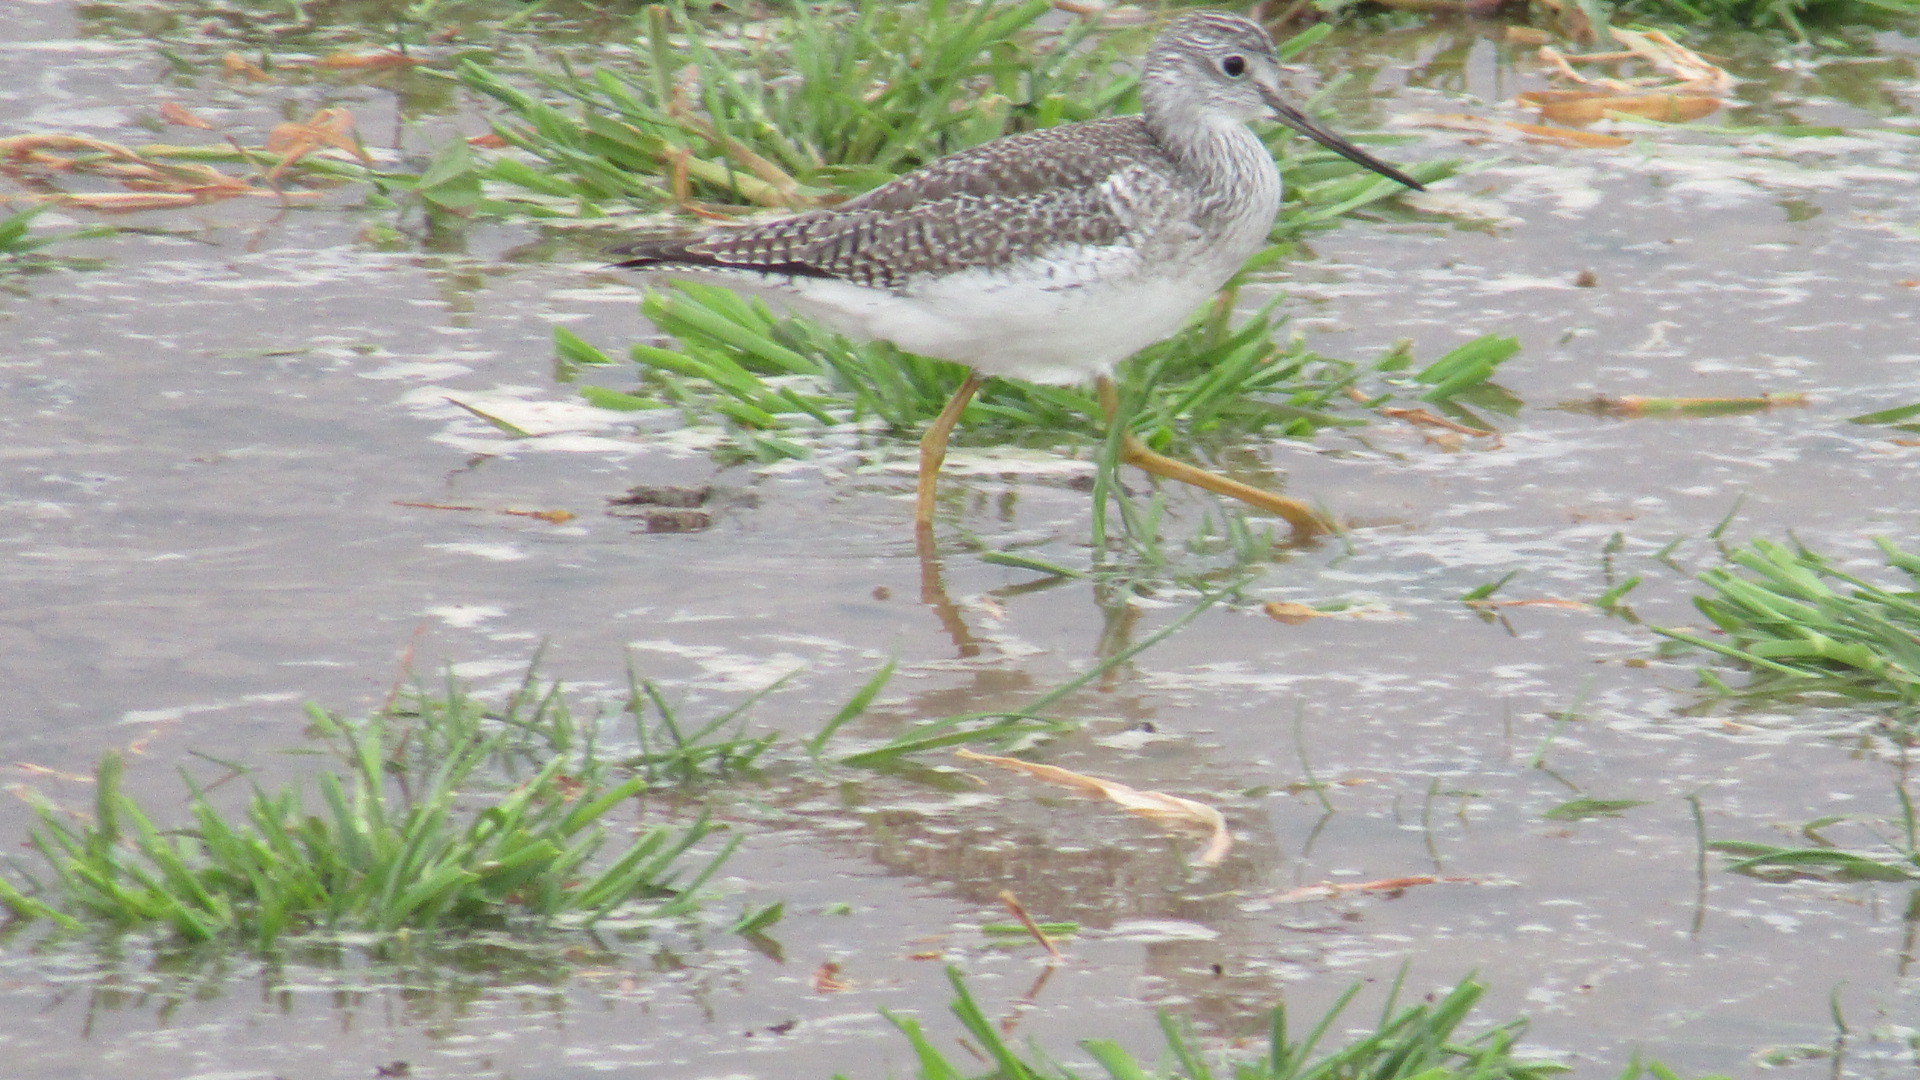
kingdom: Animalia
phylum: Chordata
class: Aves
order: Charadriiformes
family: Scolopacidae
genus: Tringa
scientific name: Tringa melanoleuca
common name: Greater yellowlegs
